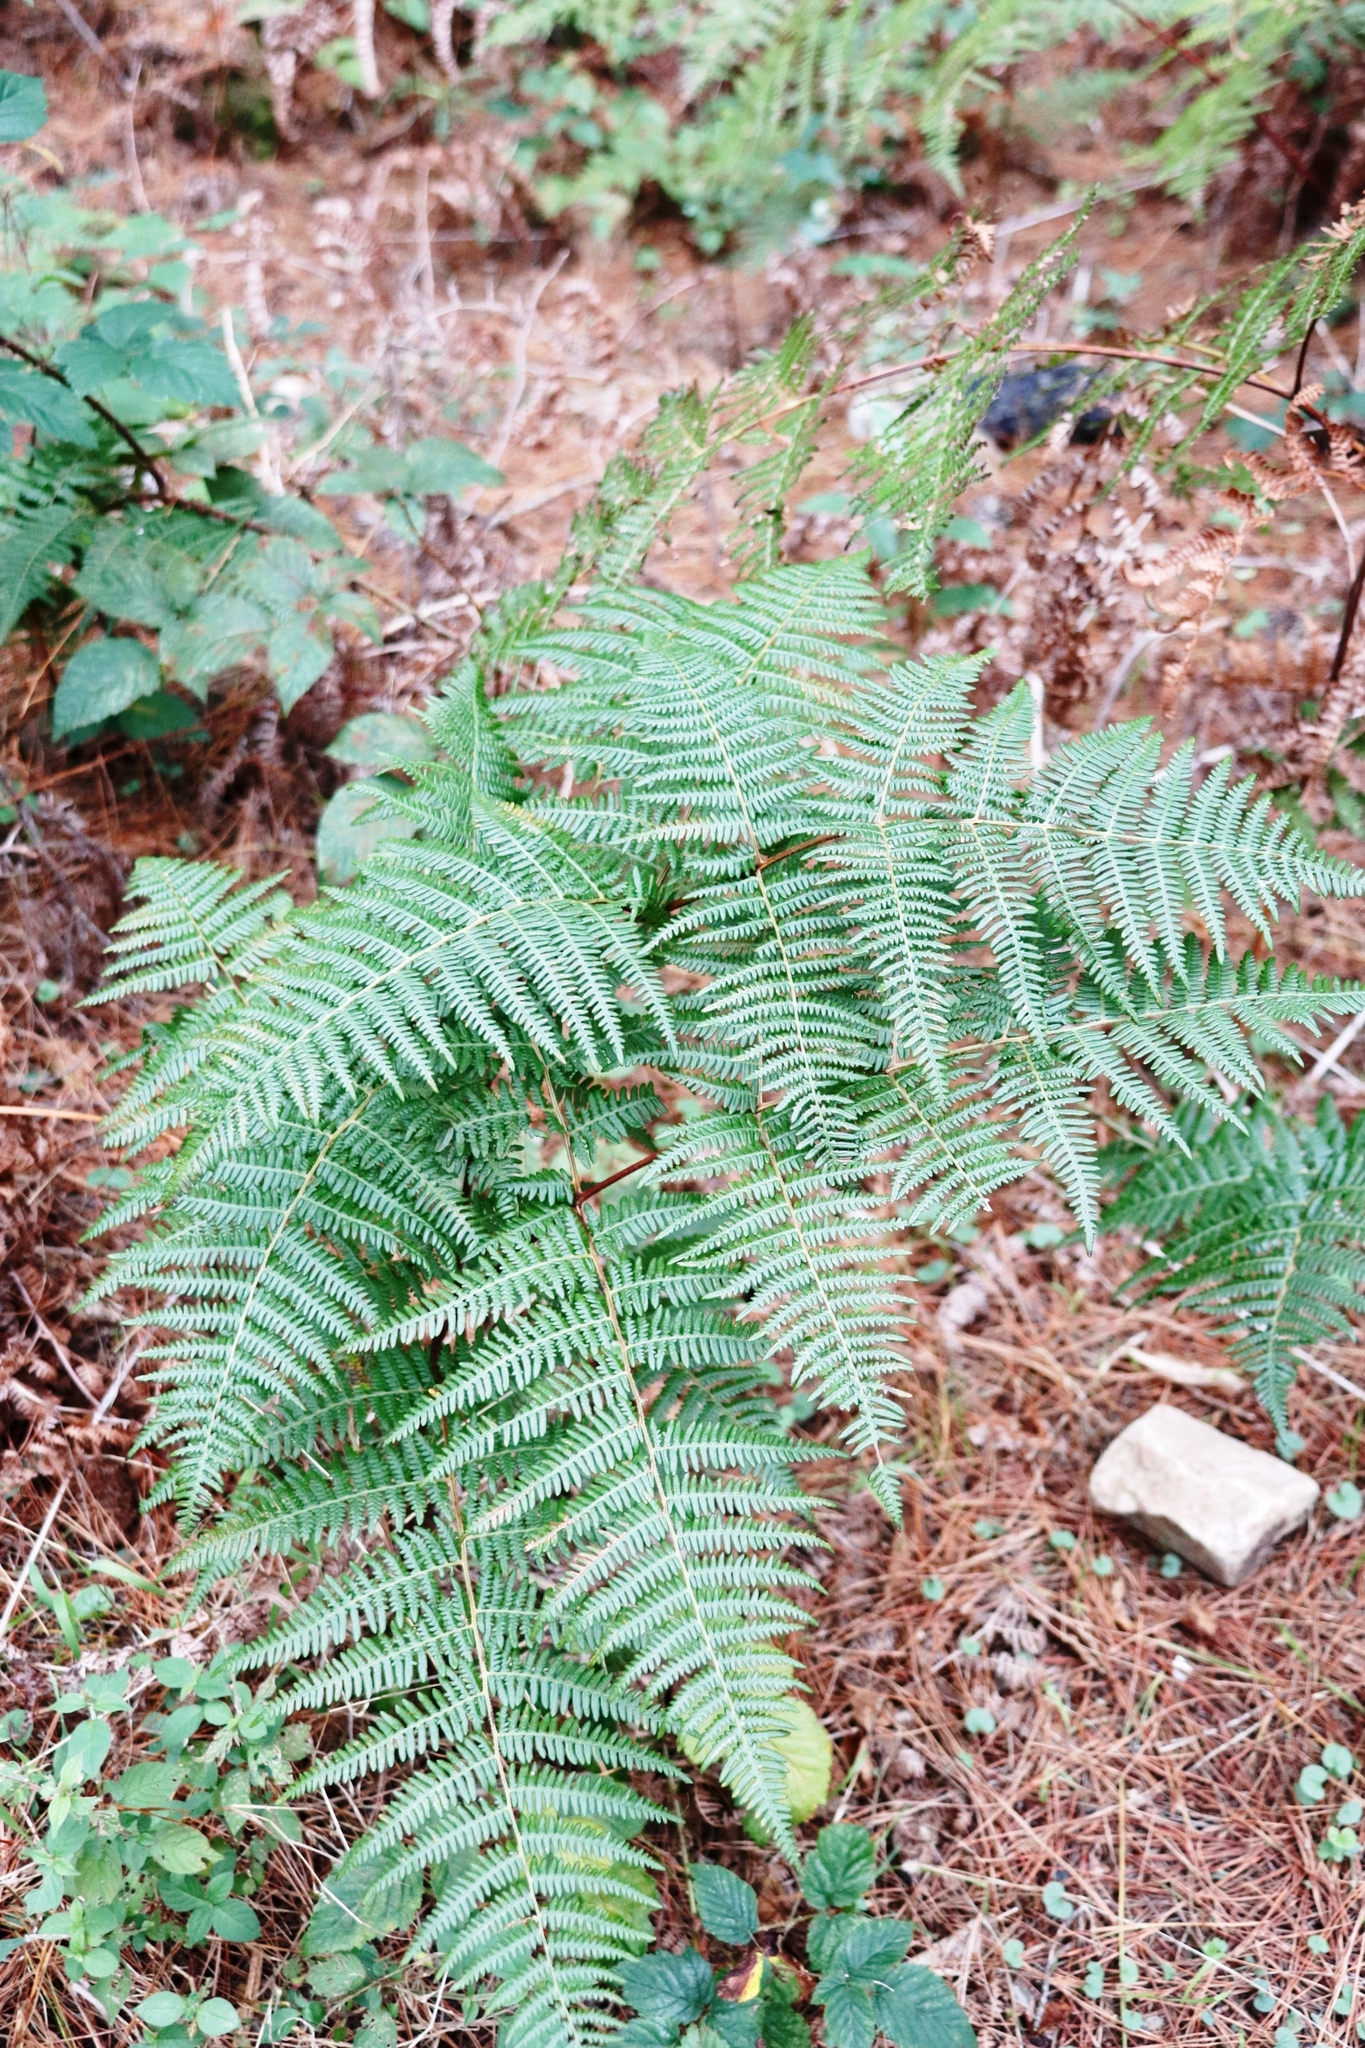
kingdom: Plantae
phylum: Tracheophyta
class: Polypodiopsida
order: Polypodiales
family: Dennstaedtiaceae
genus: Pteridium
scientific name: Pteridium aquilinum
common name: Bracken
